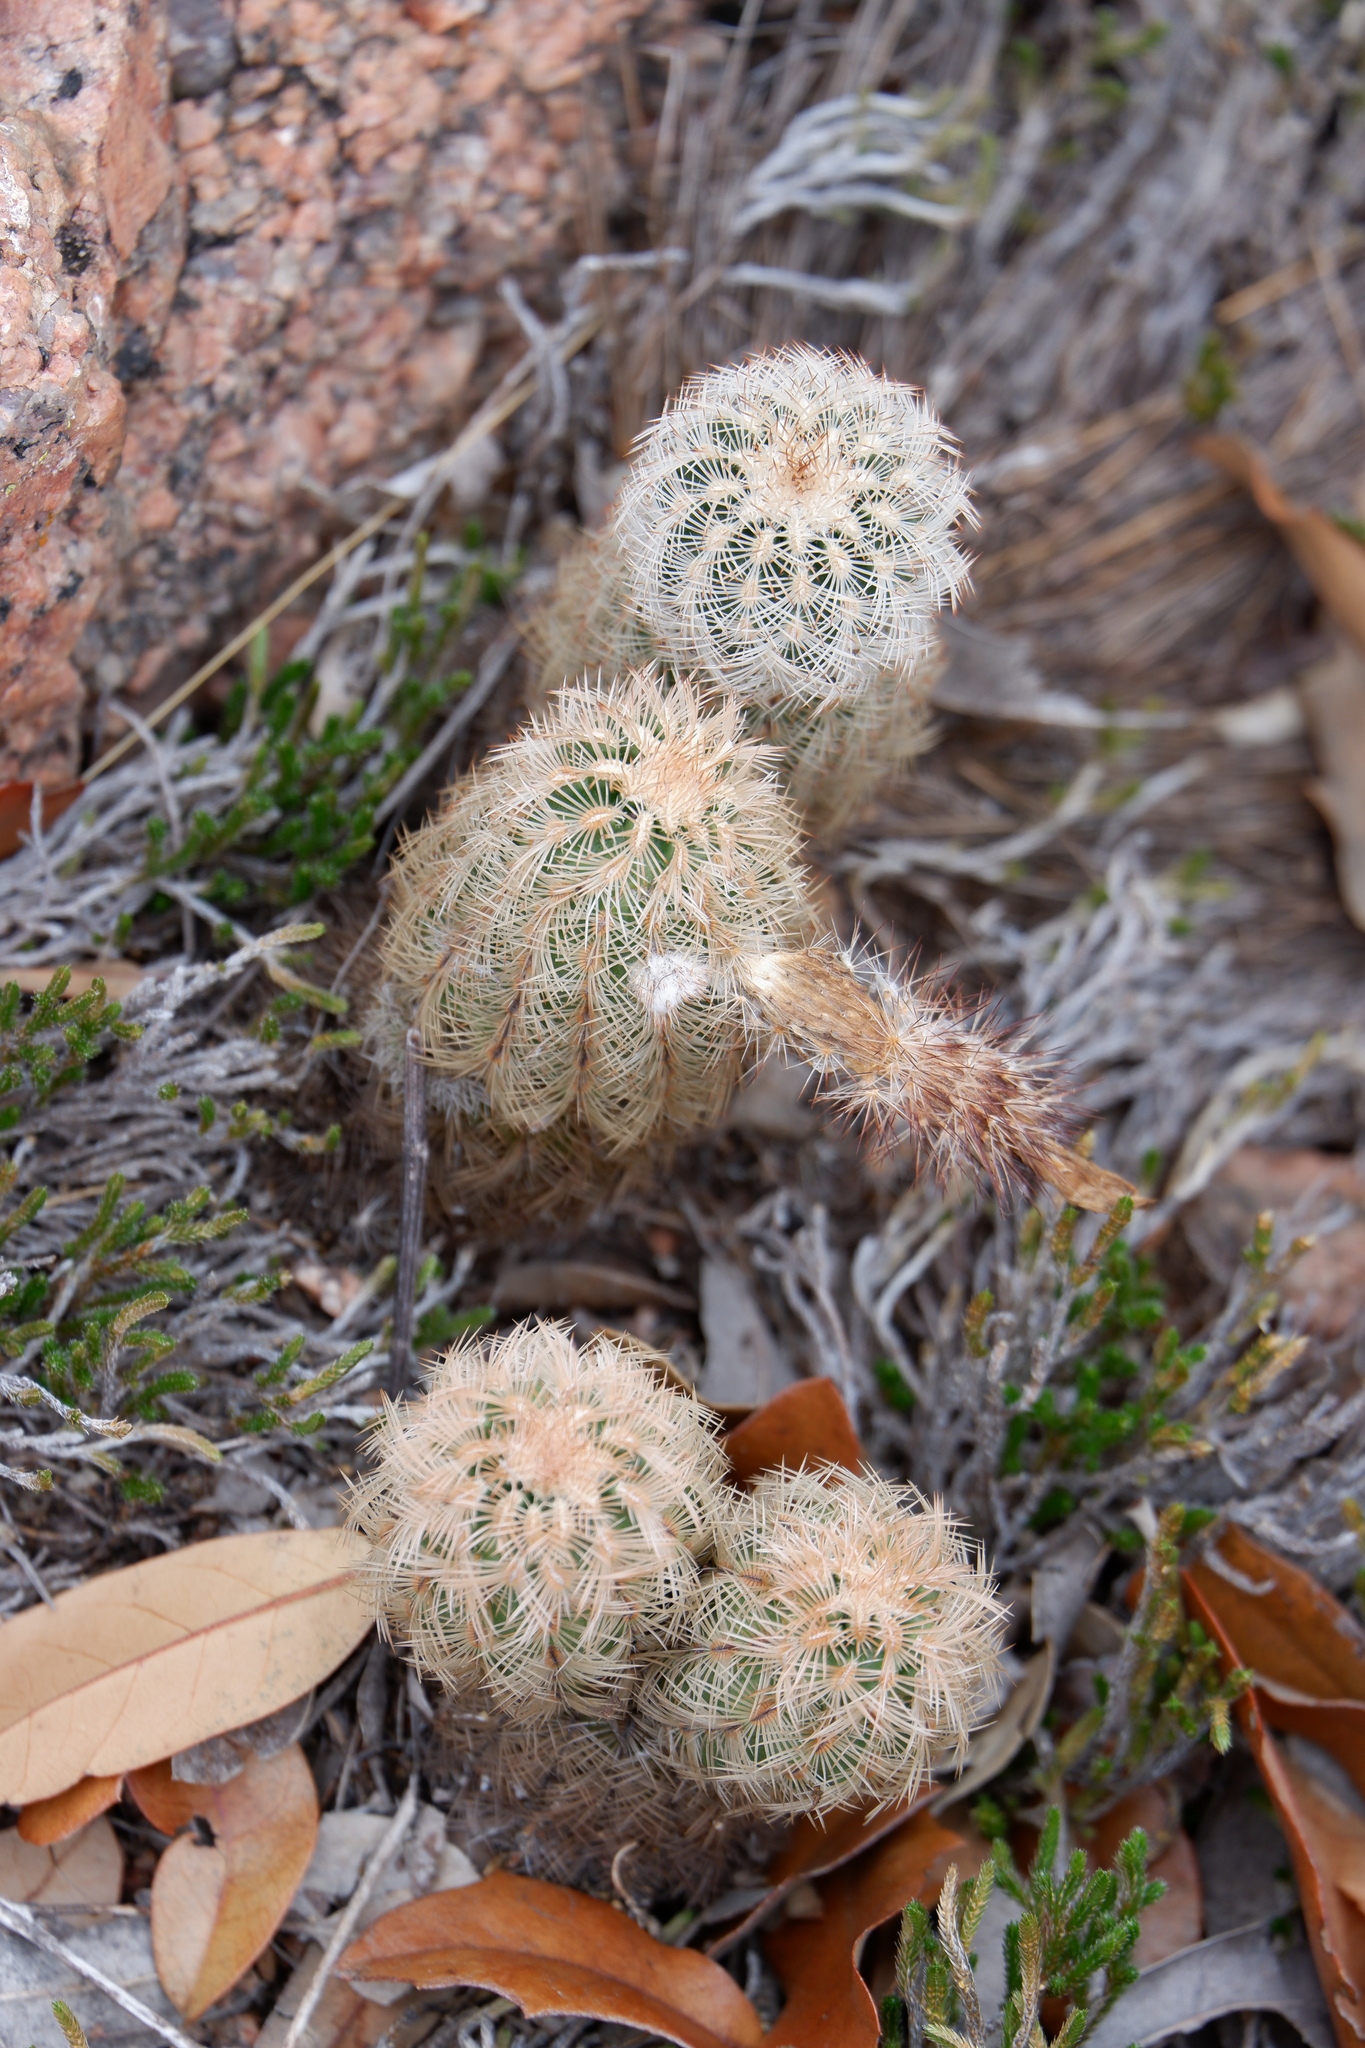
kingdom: Plantae
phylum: Tracheophyta
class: Magnoliopsida
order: Caryophyllales
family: Cactaceae
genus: Echinocereus
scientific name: Echinocereus reichenbachii
